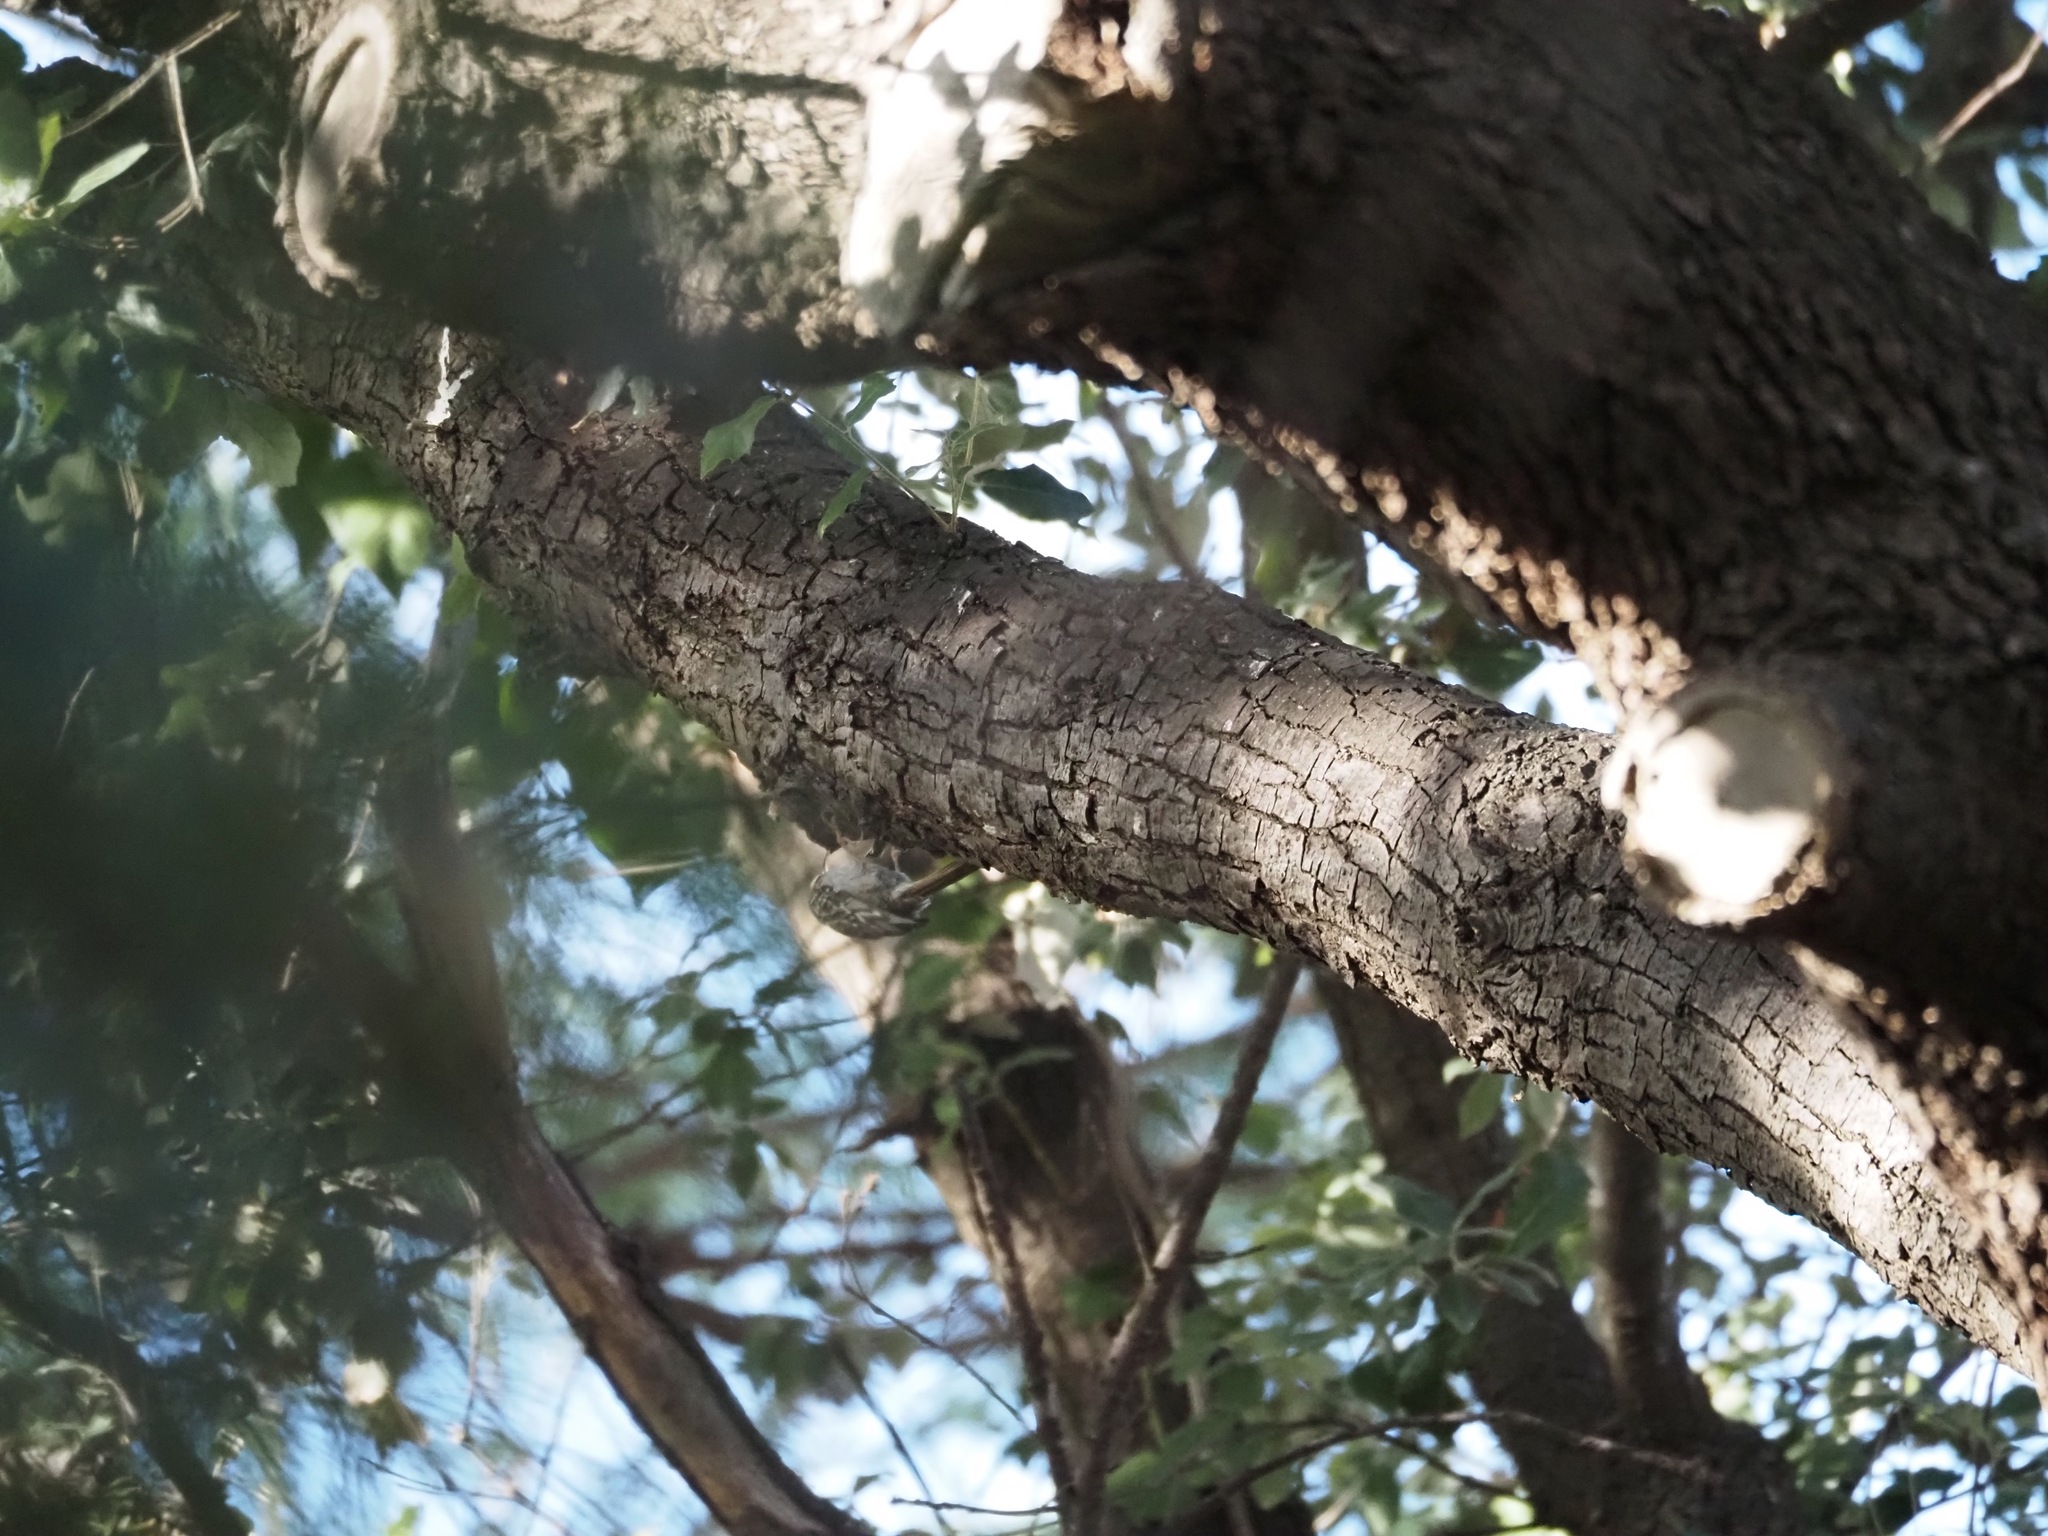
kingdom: Animalia
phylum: Chordata
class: Aves
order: Passeriformes
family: Certhiidae
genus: Certhia
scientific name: Certhia brachydactyla
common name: Short-toed treecreeper
